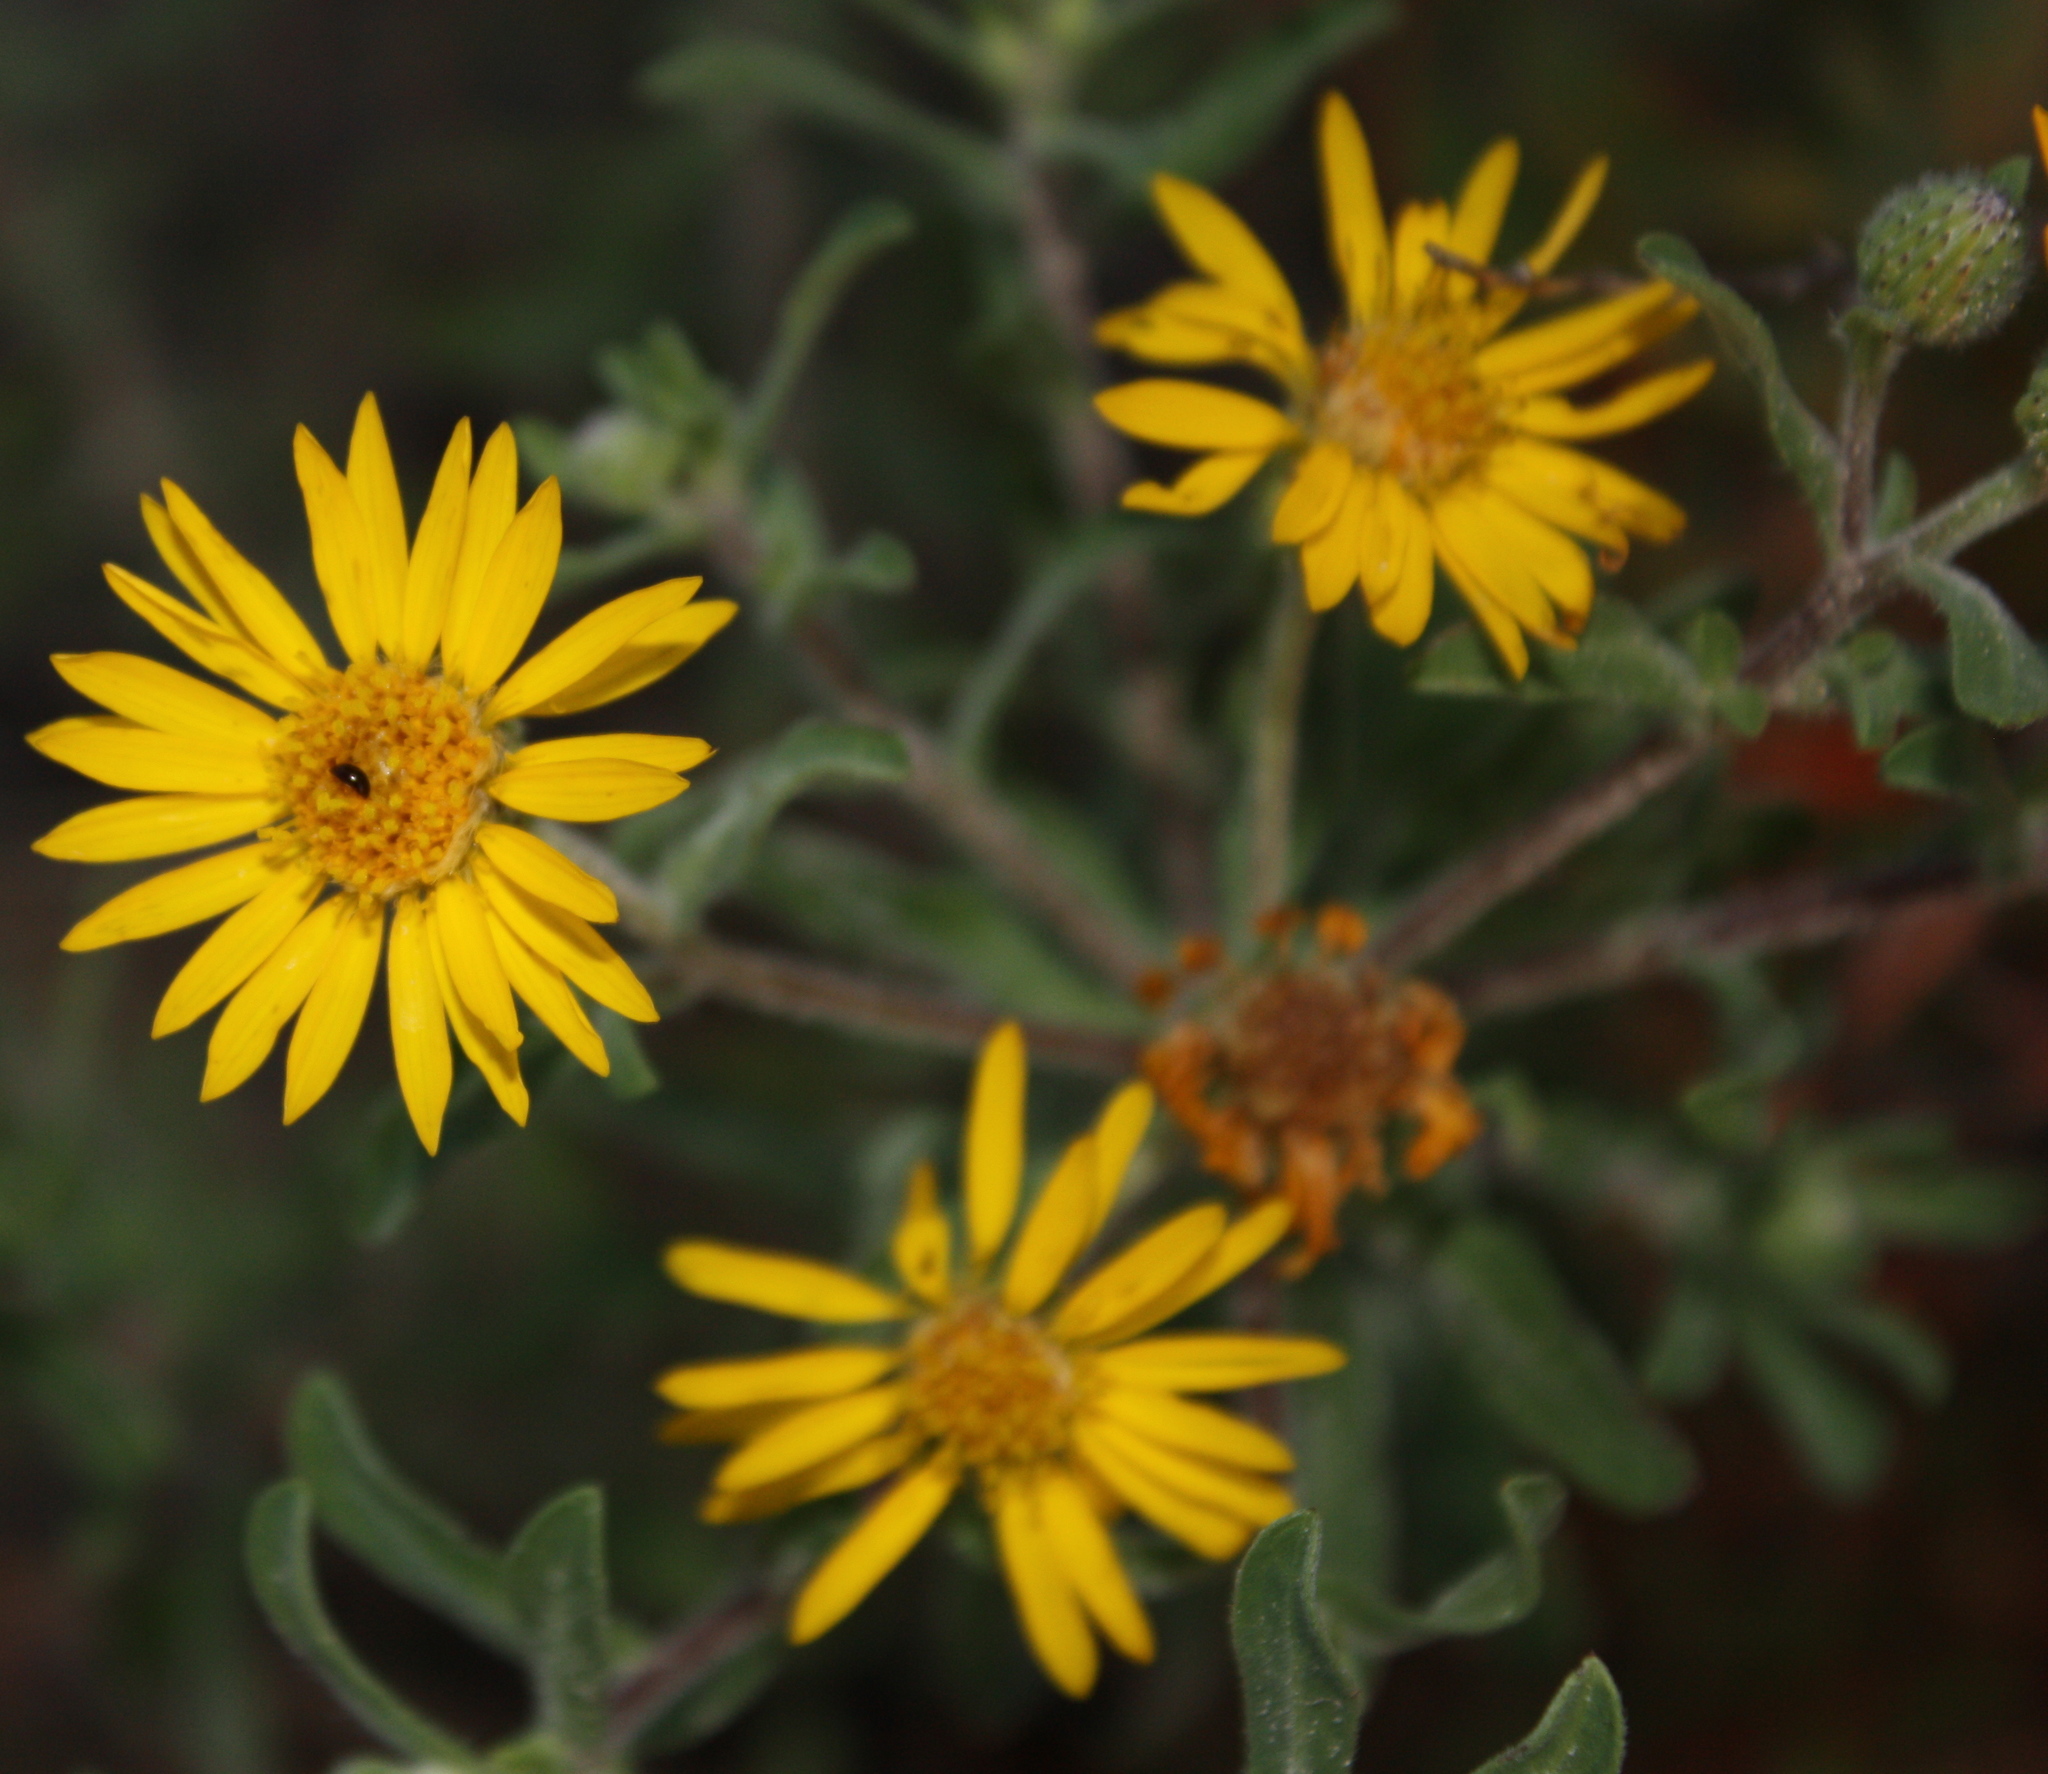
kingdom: Plantae
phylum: Tracheophyta
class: Magnoliopsida
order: Asterales
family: Asteraceae
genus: Heterotheca
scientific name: Heterotheca villosa
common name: Hairy false goldenaster
